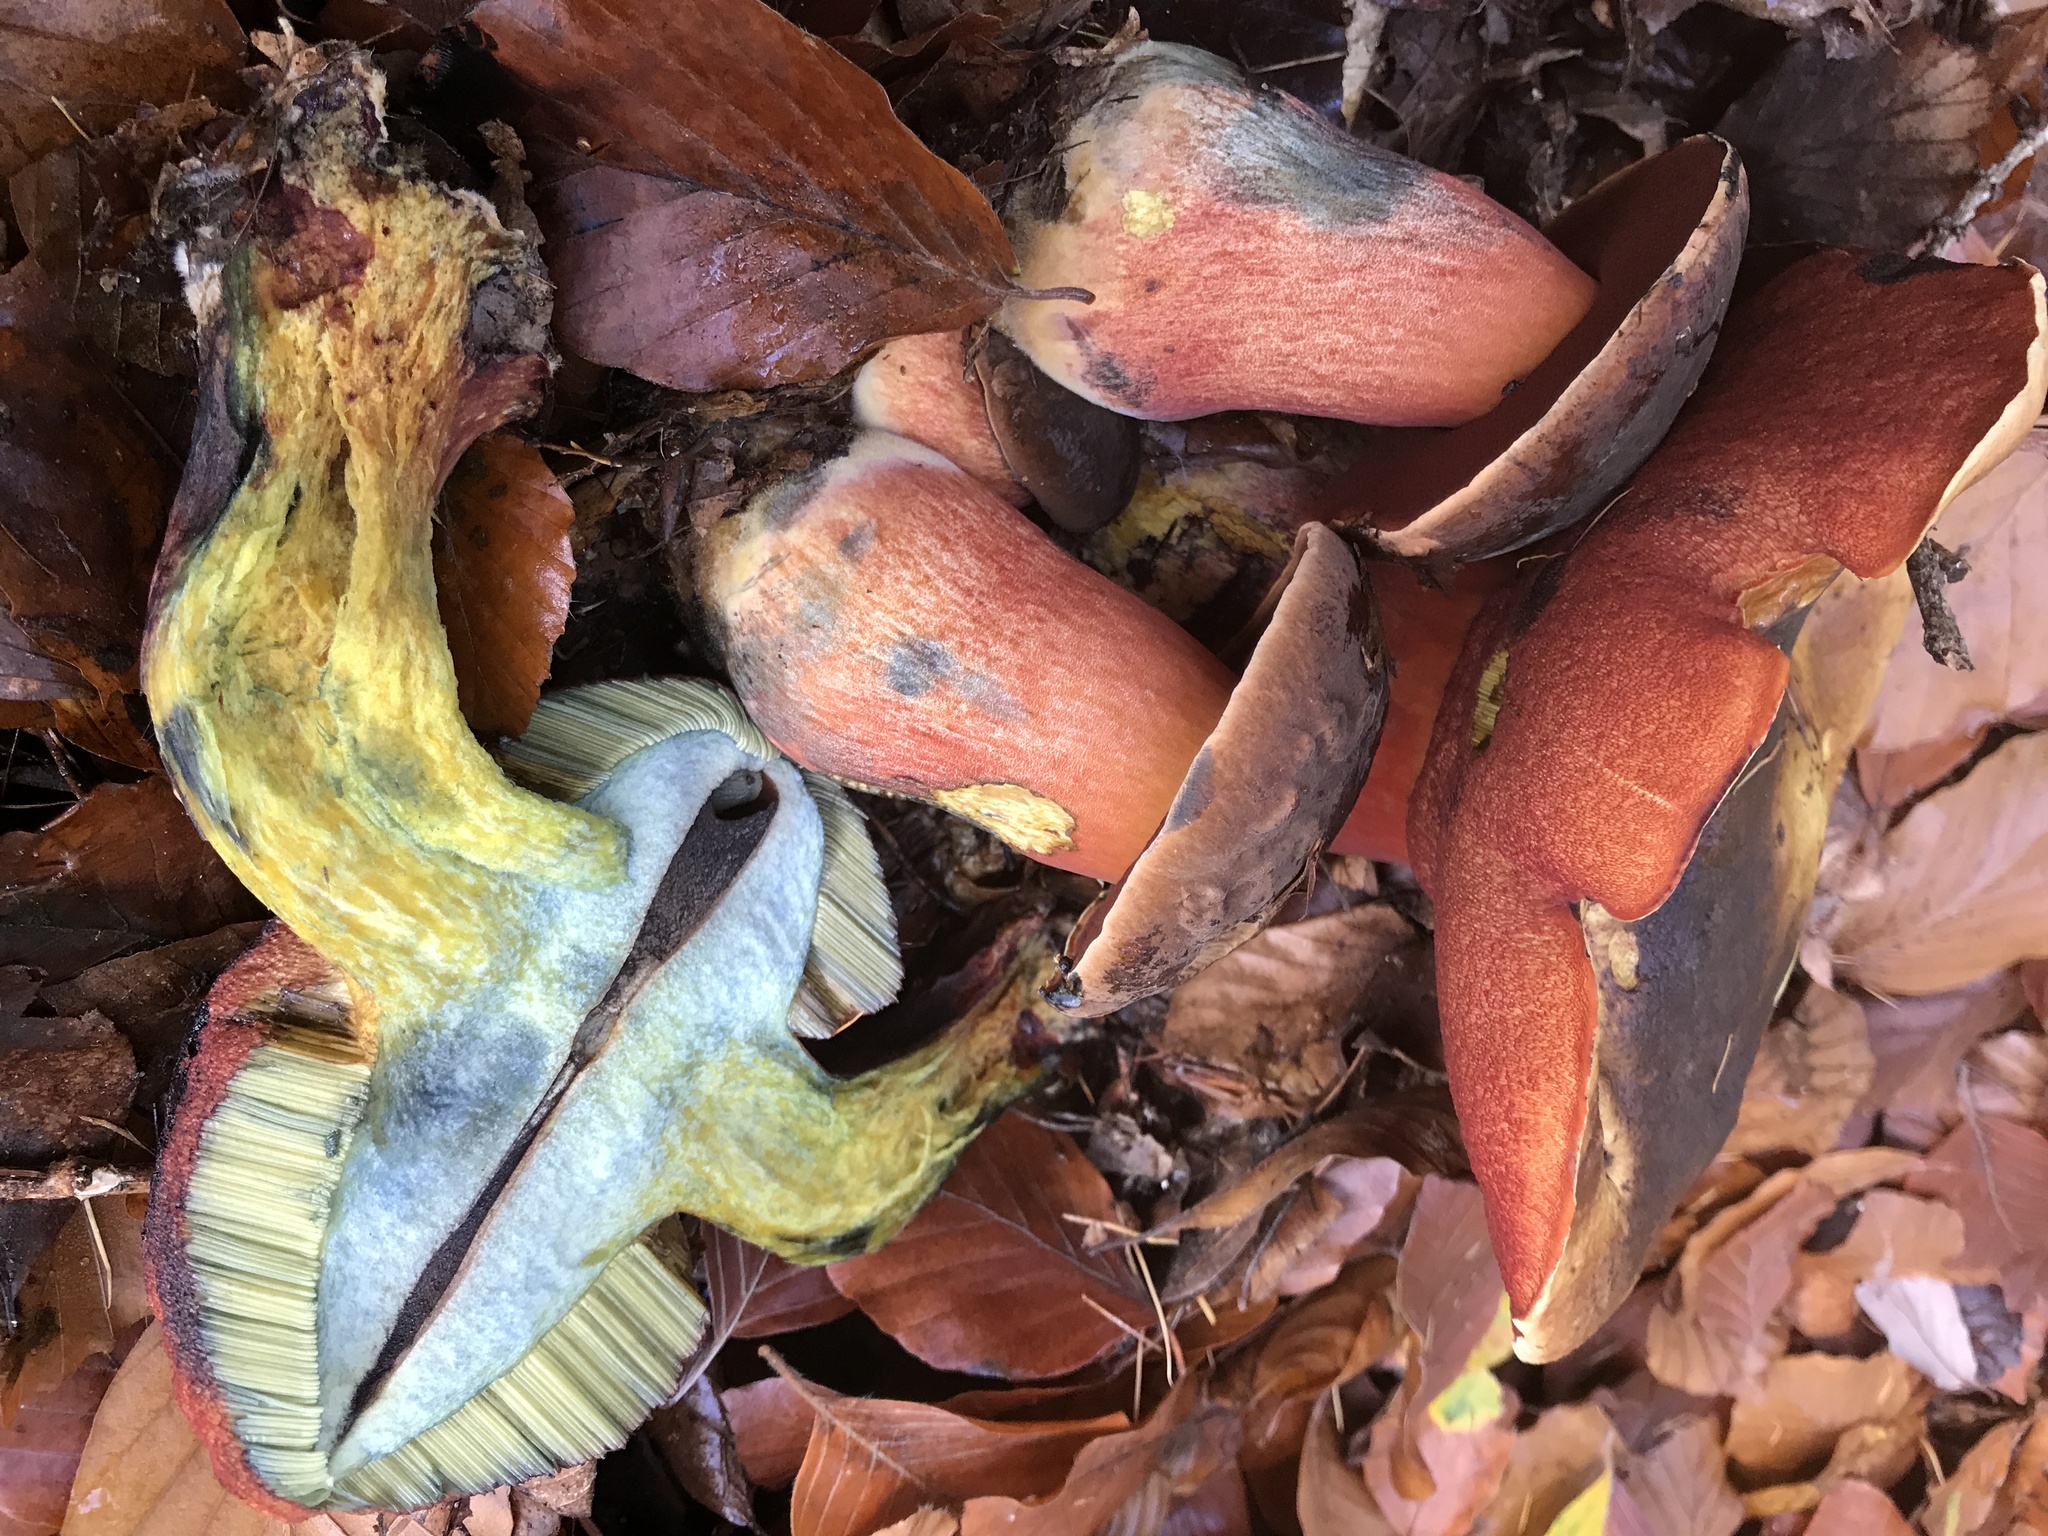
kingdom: Fungi
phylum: Basidiomycota
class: Agaricomycetes
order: Boletales
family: Boletaceae
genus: Neoboletus
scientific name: Neoboletus erythropus
